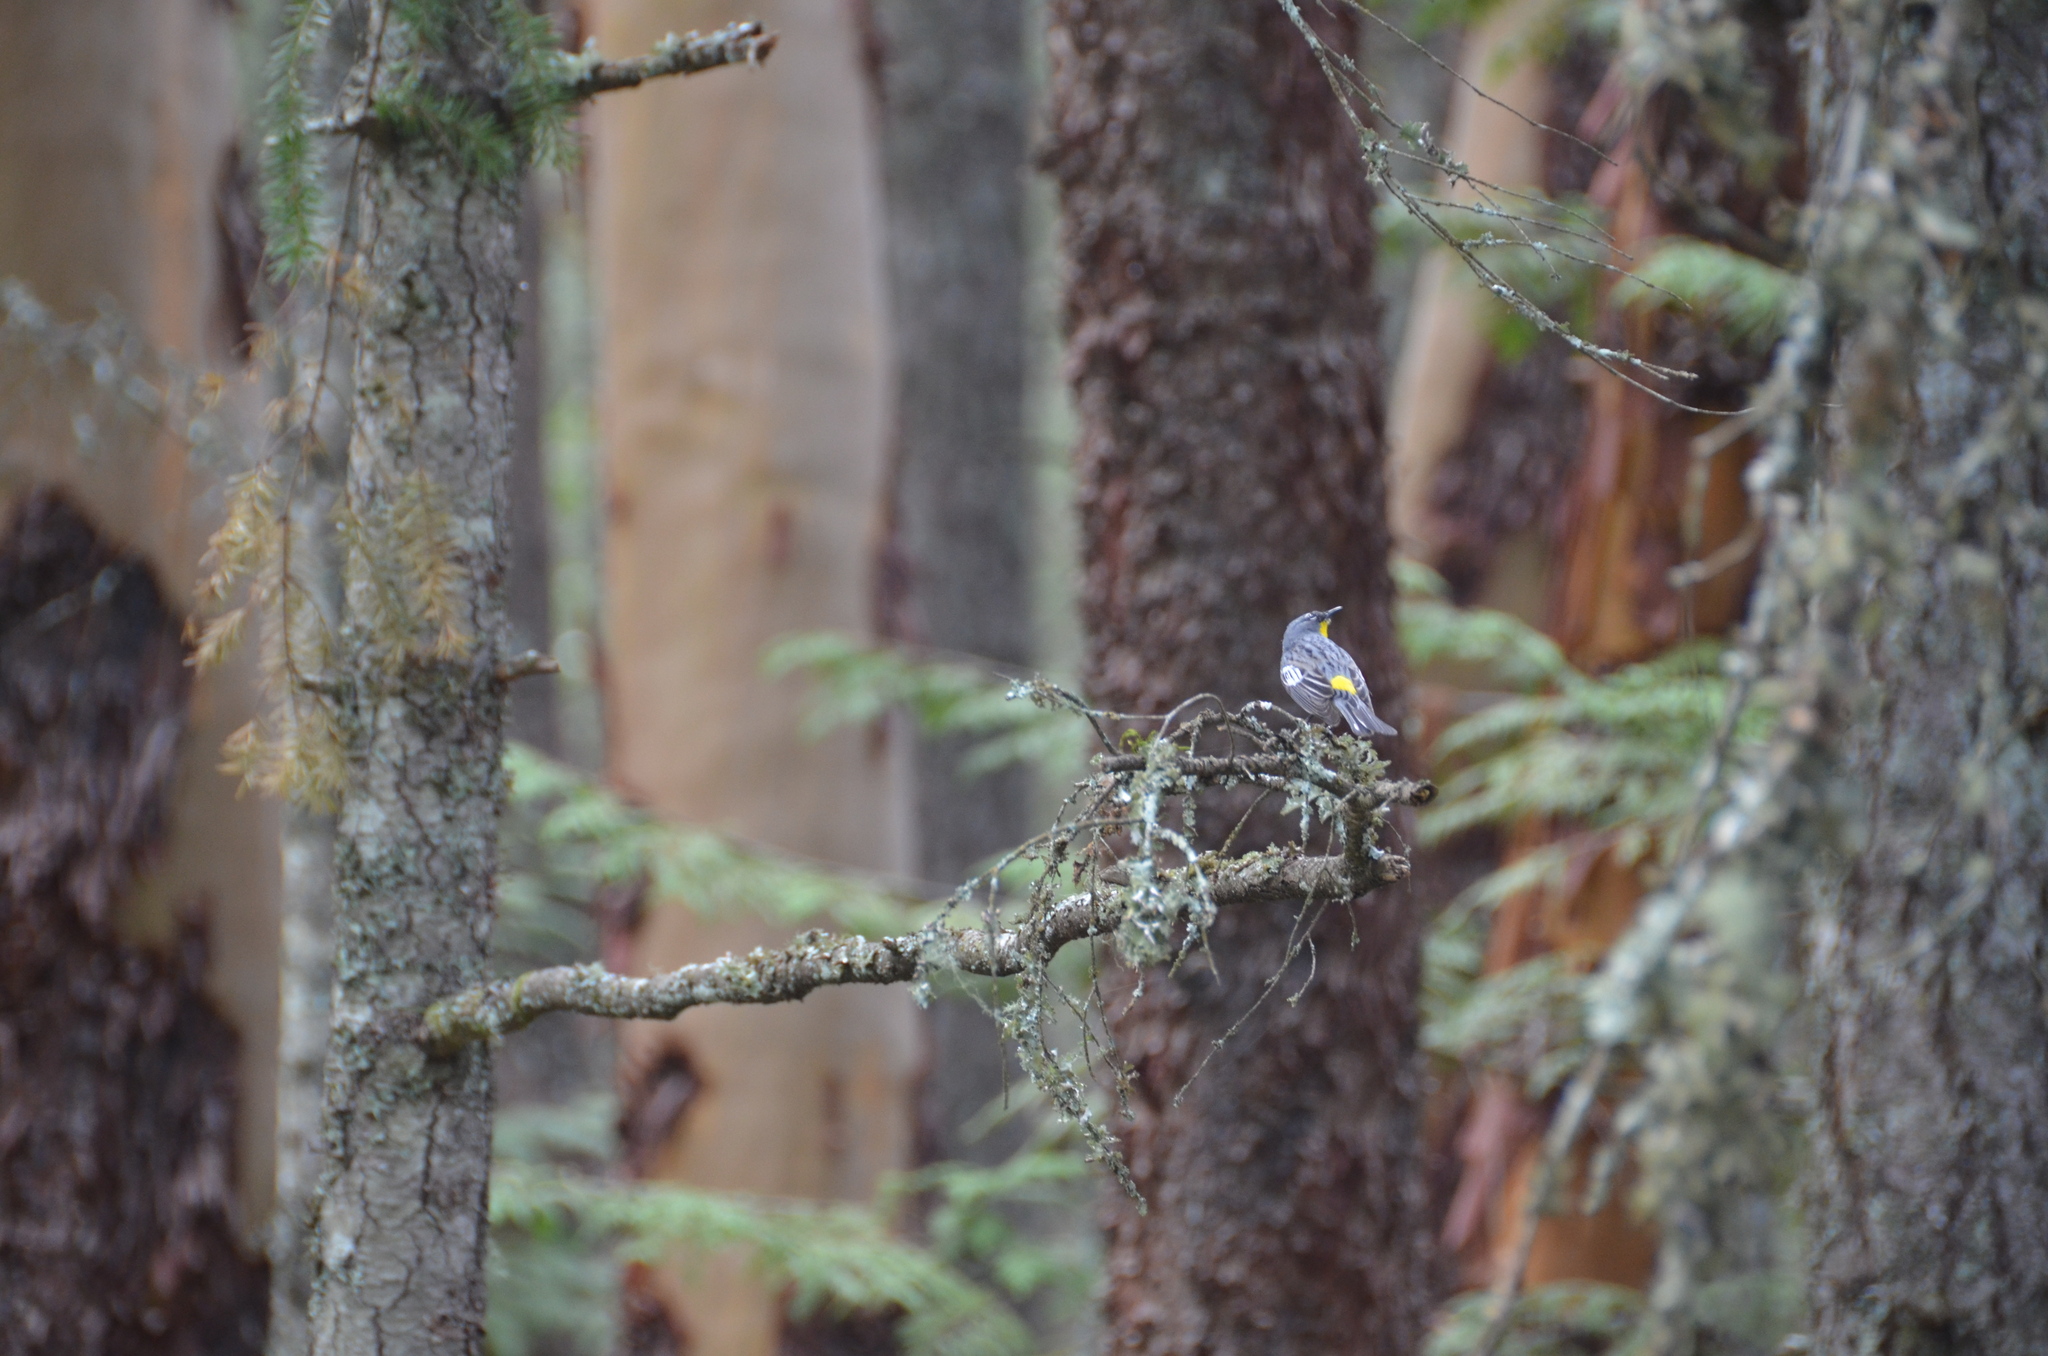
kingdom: Animalia
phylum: Chordata
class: Aves
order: Passeriformes
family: Parulidae
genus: Setophaga
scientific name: Setophaga auduboni
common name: Audubon's warbler
